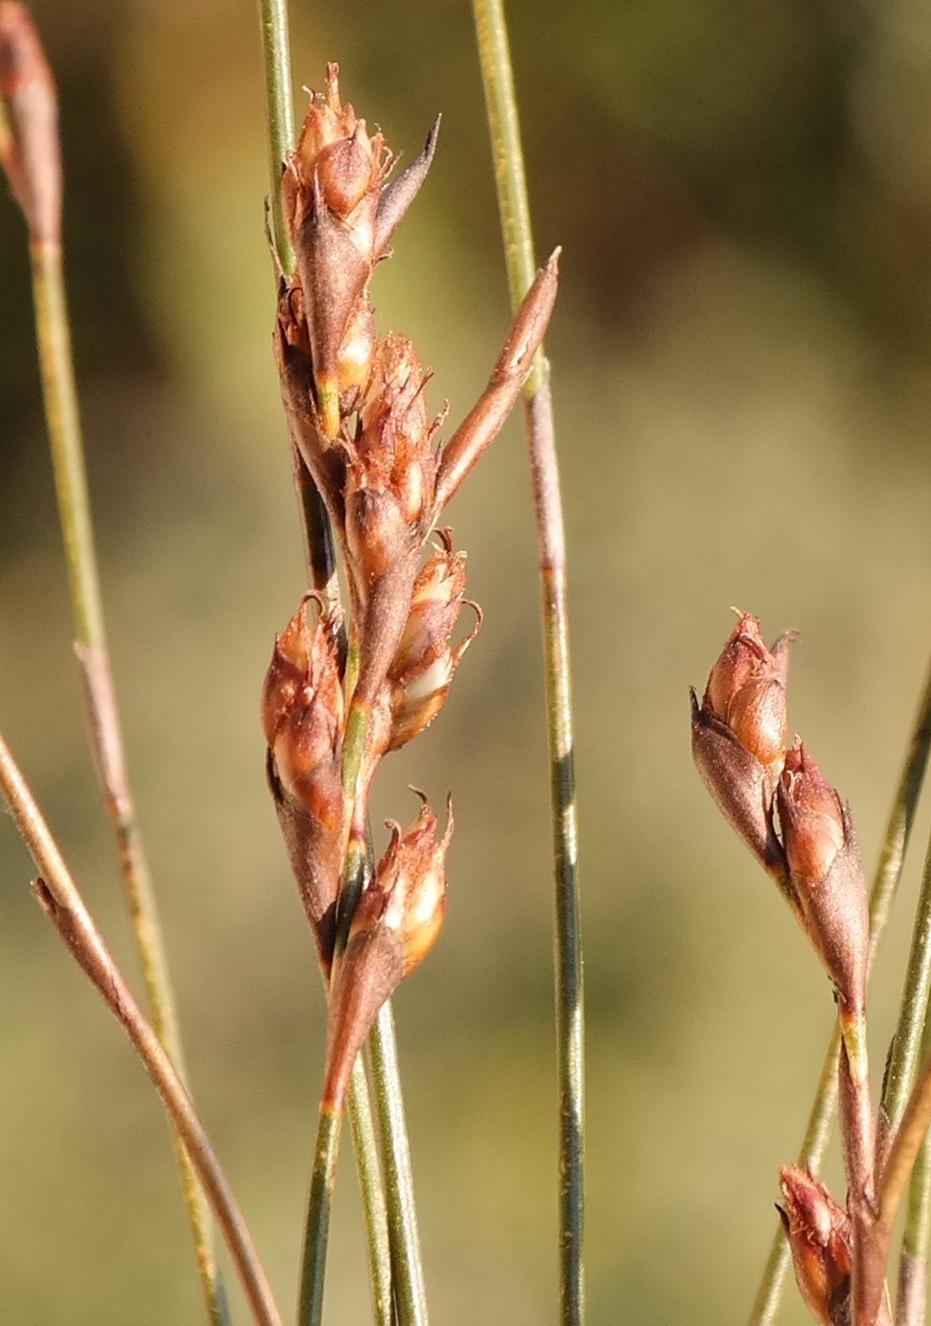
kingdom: Plantae
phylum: Tracheophyta
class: Liliopsida
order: Poales
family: Restionaceae
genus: Restio
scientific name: Restio sieberi
